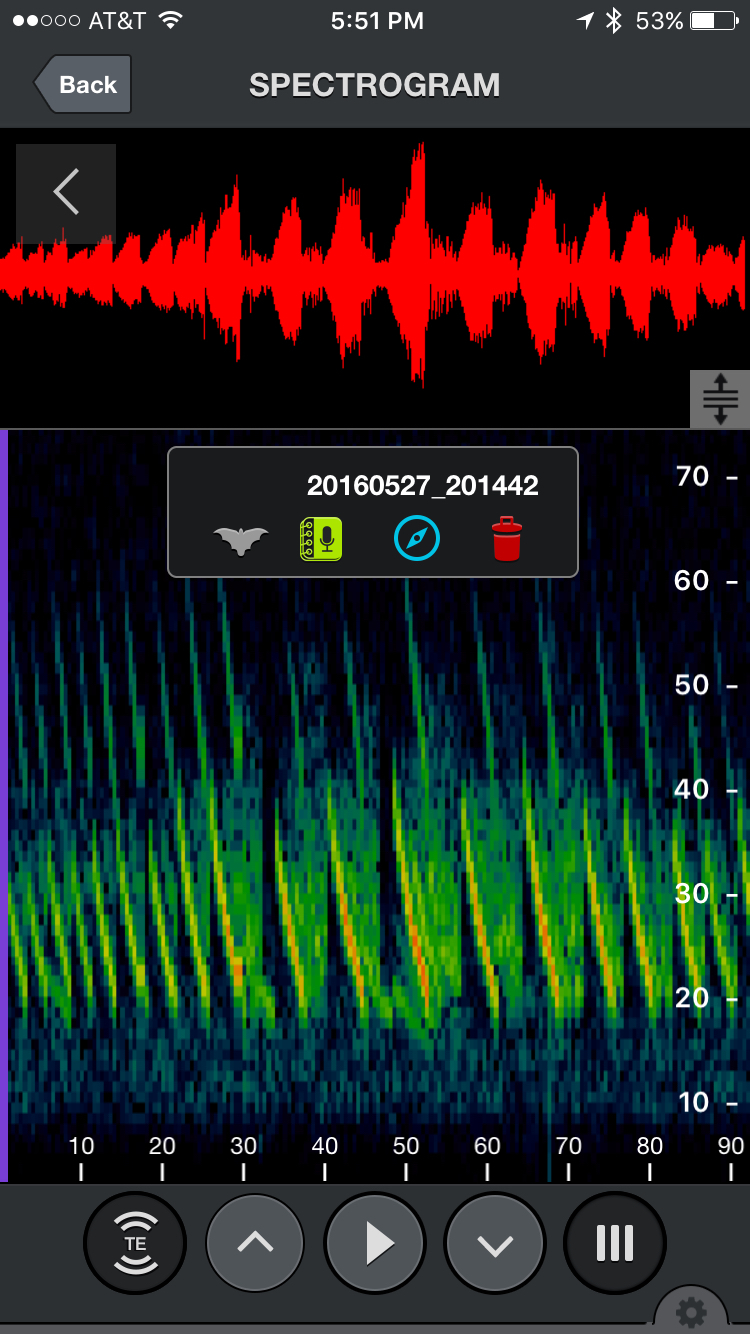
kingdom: Animalia
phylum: Chordata
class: Mammalia
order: Chiroptera
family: Vespertilionidae
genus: Myotis
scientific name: Myotis vivesi
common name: Fish-eating myotis
